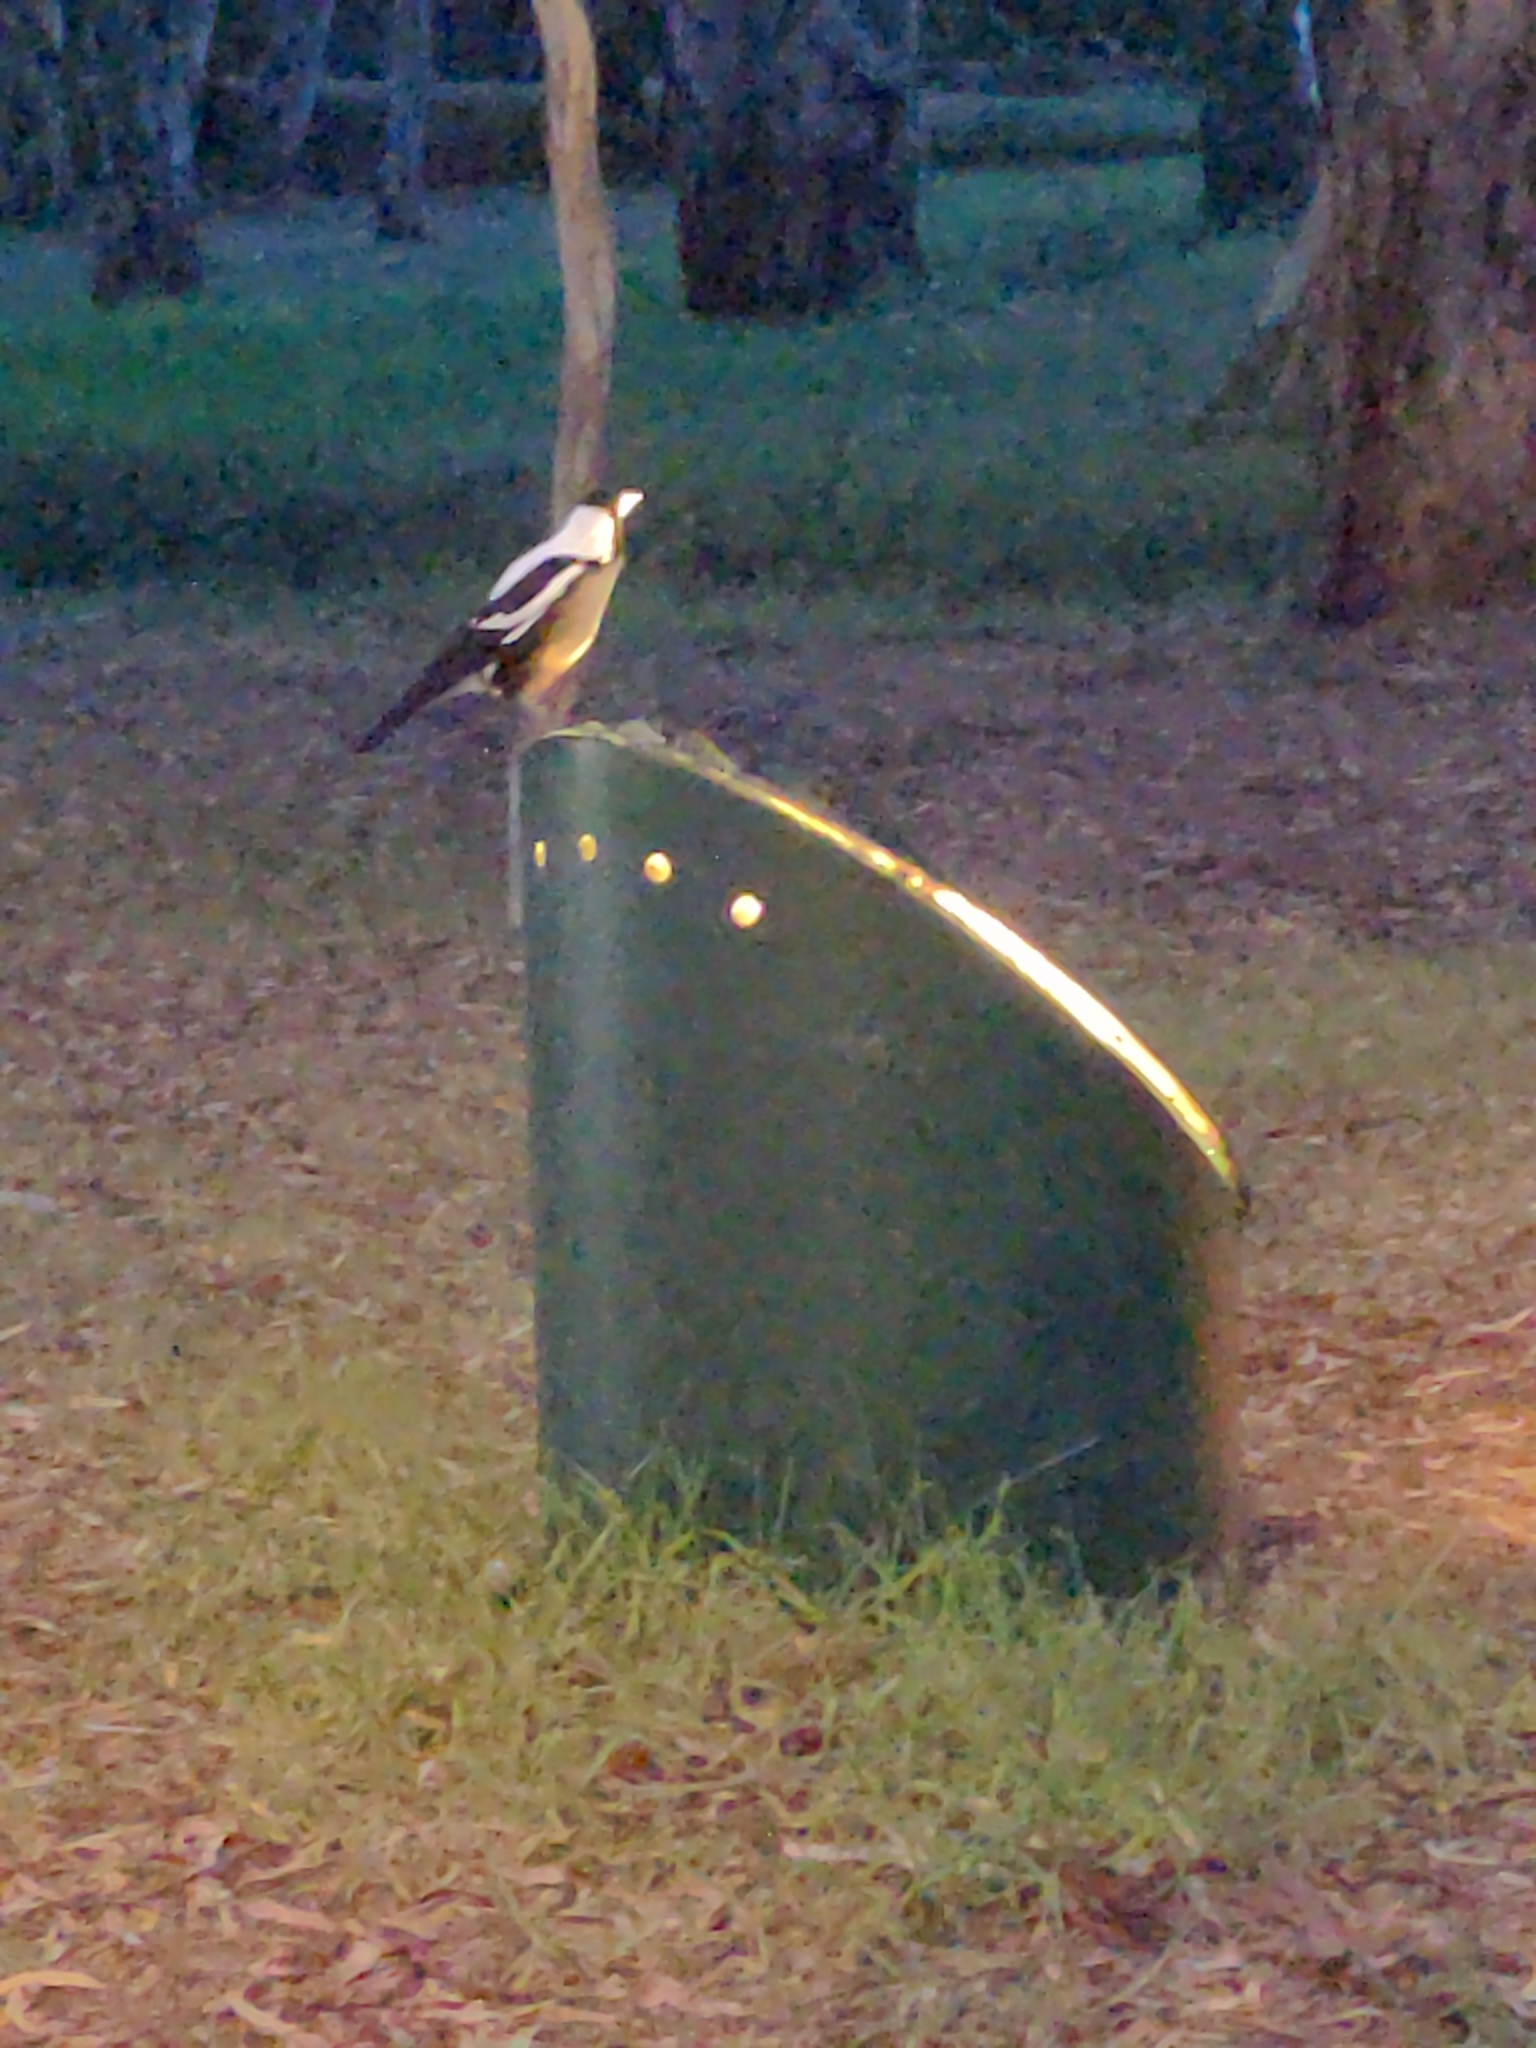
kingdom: Animalia
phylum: Chordata
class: Aves
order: Passeriformes
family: Cracticidae
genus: Gymnorhina
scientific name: Gymnorhina tibicen
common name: Australian magpie
